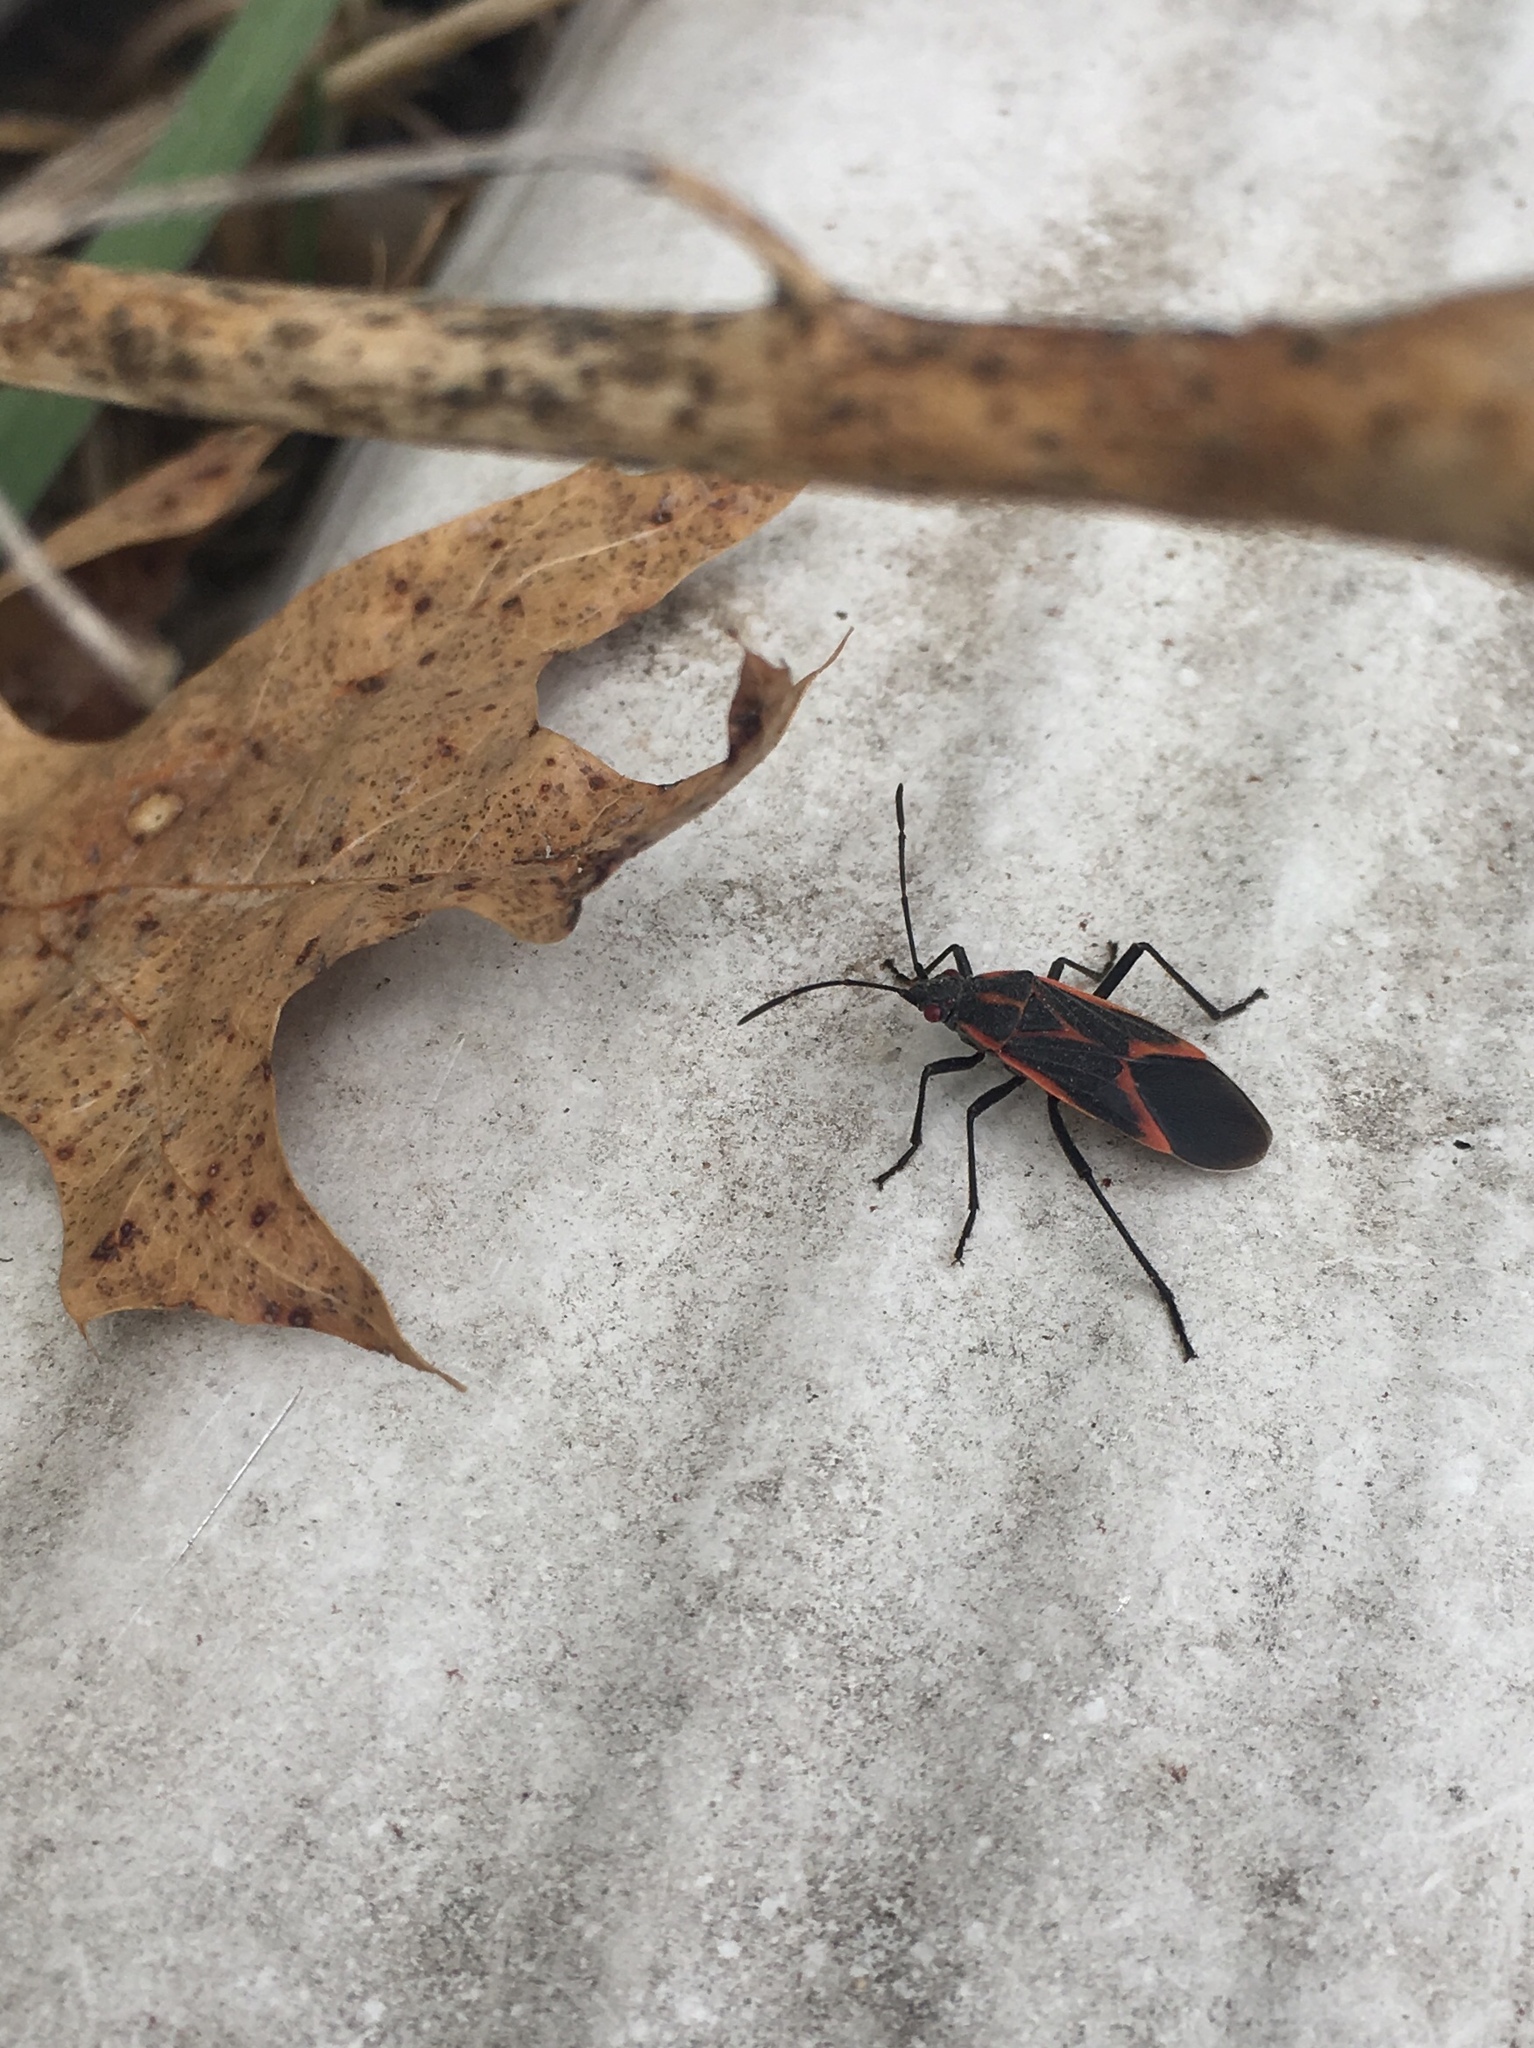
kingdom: Animalia
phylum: Arthropoda
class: Insecta
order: Hemiptera
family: Rhopalidae
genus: Boisea
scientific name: Boisea trivittata
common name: Boxelder bug
